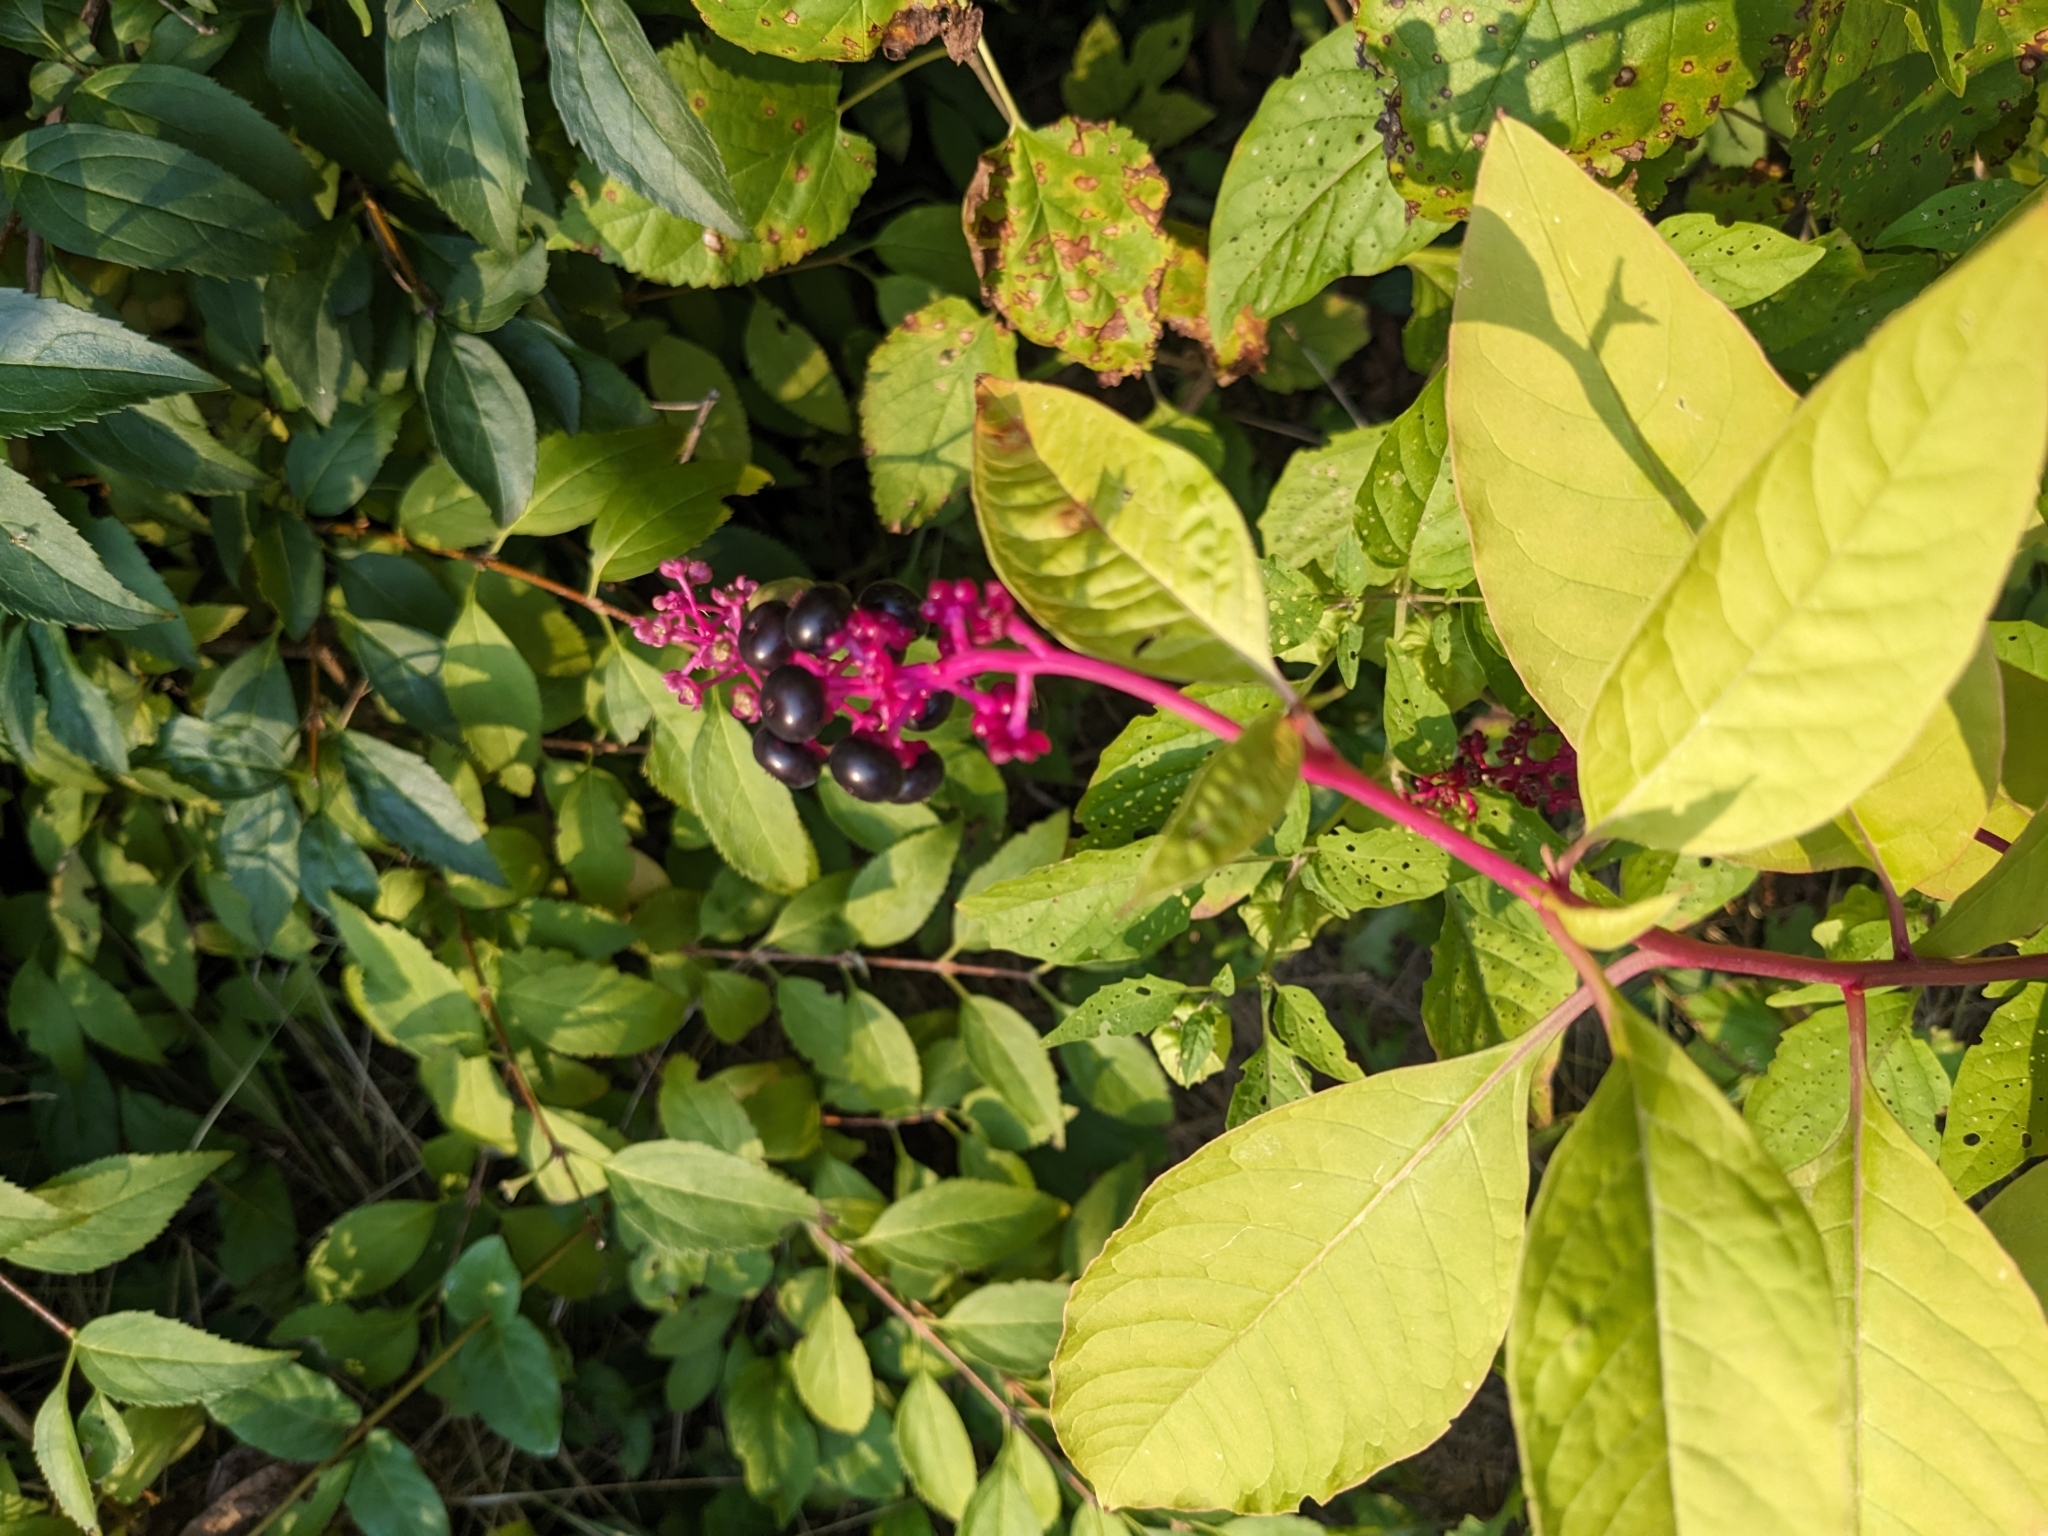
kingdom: Plantae
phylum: Tracheophyta
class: Magnoliopsida
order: Caryophyllales
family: Phytolaccaceae
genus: Phytolacca
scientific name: Phytolacca americana
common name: American pokeweed
